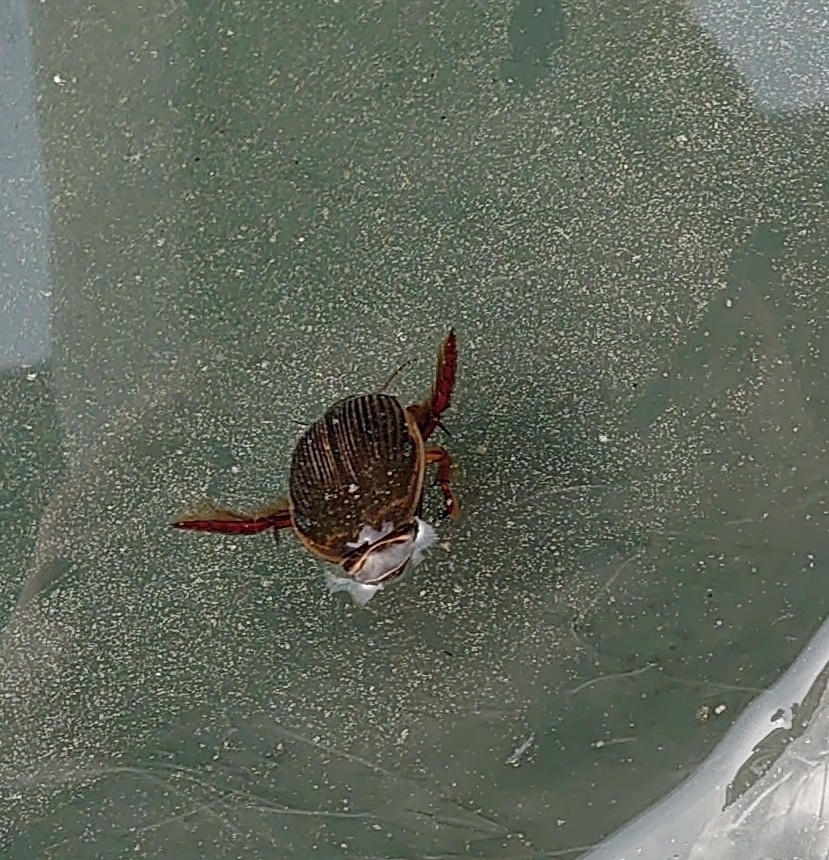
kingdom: Animalia
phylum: Arthropoda
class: Insecta
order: Coleoptera
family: Dytiscidae
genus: Dytiscus
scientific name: Dytiscus marginalis
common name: Great water beetle
